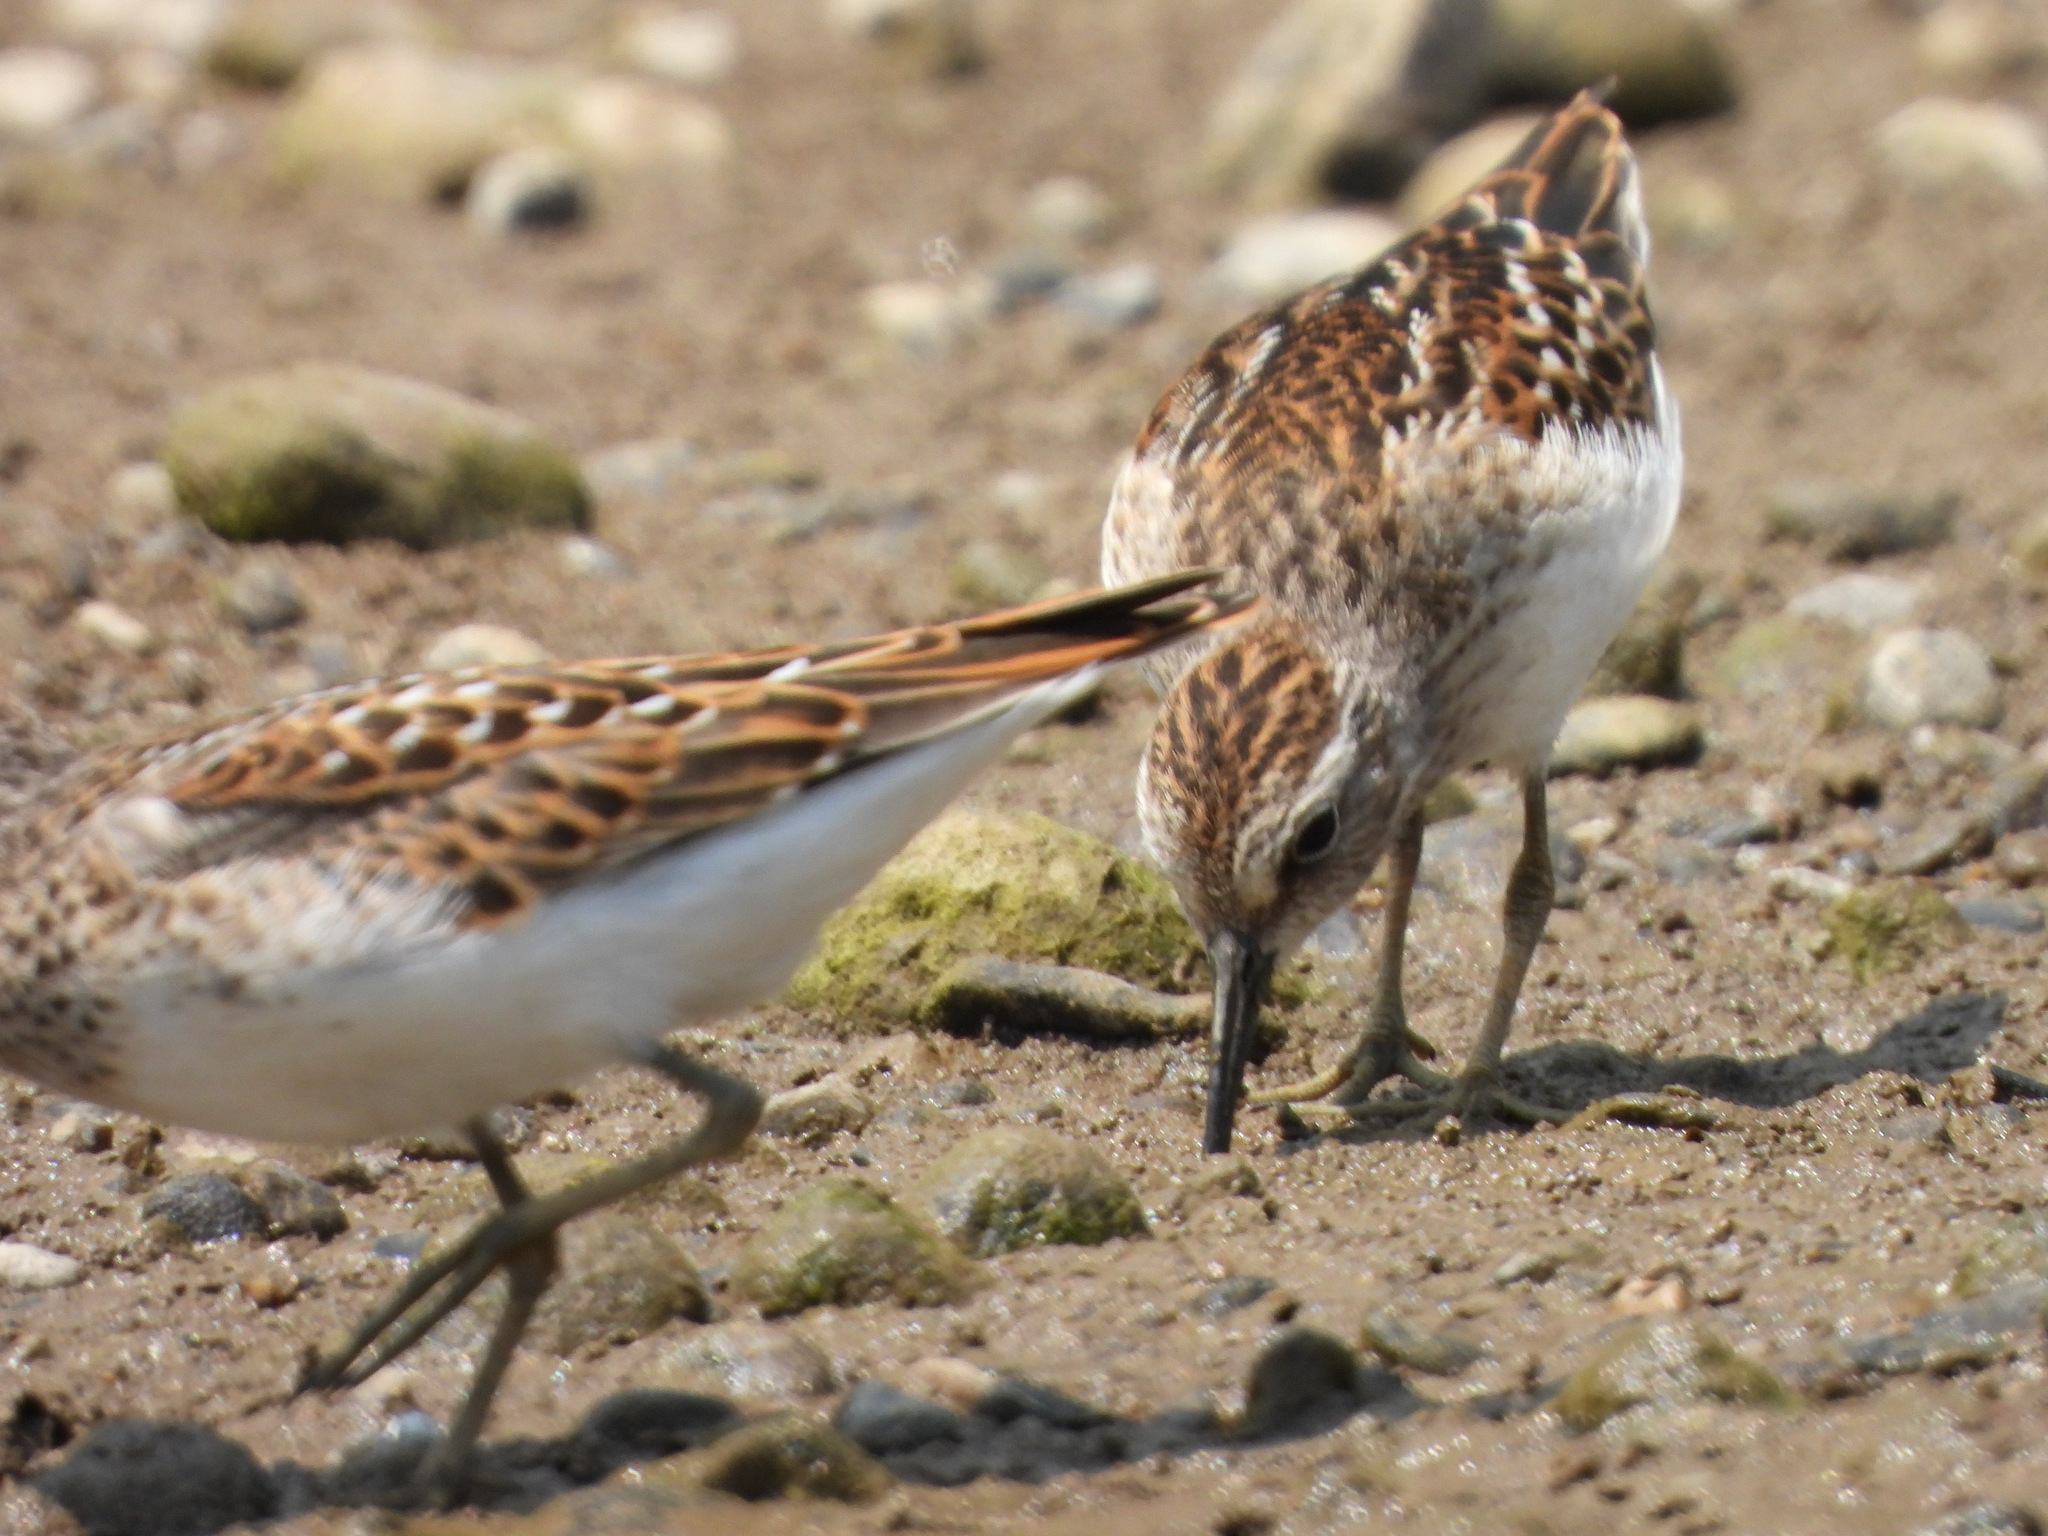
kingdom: Animalia
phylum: Chordata
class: Aves
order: Charadriiformes
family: Scolopacidae
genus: Calidris
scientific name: Calidris minutilla
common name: Least sandpiper
